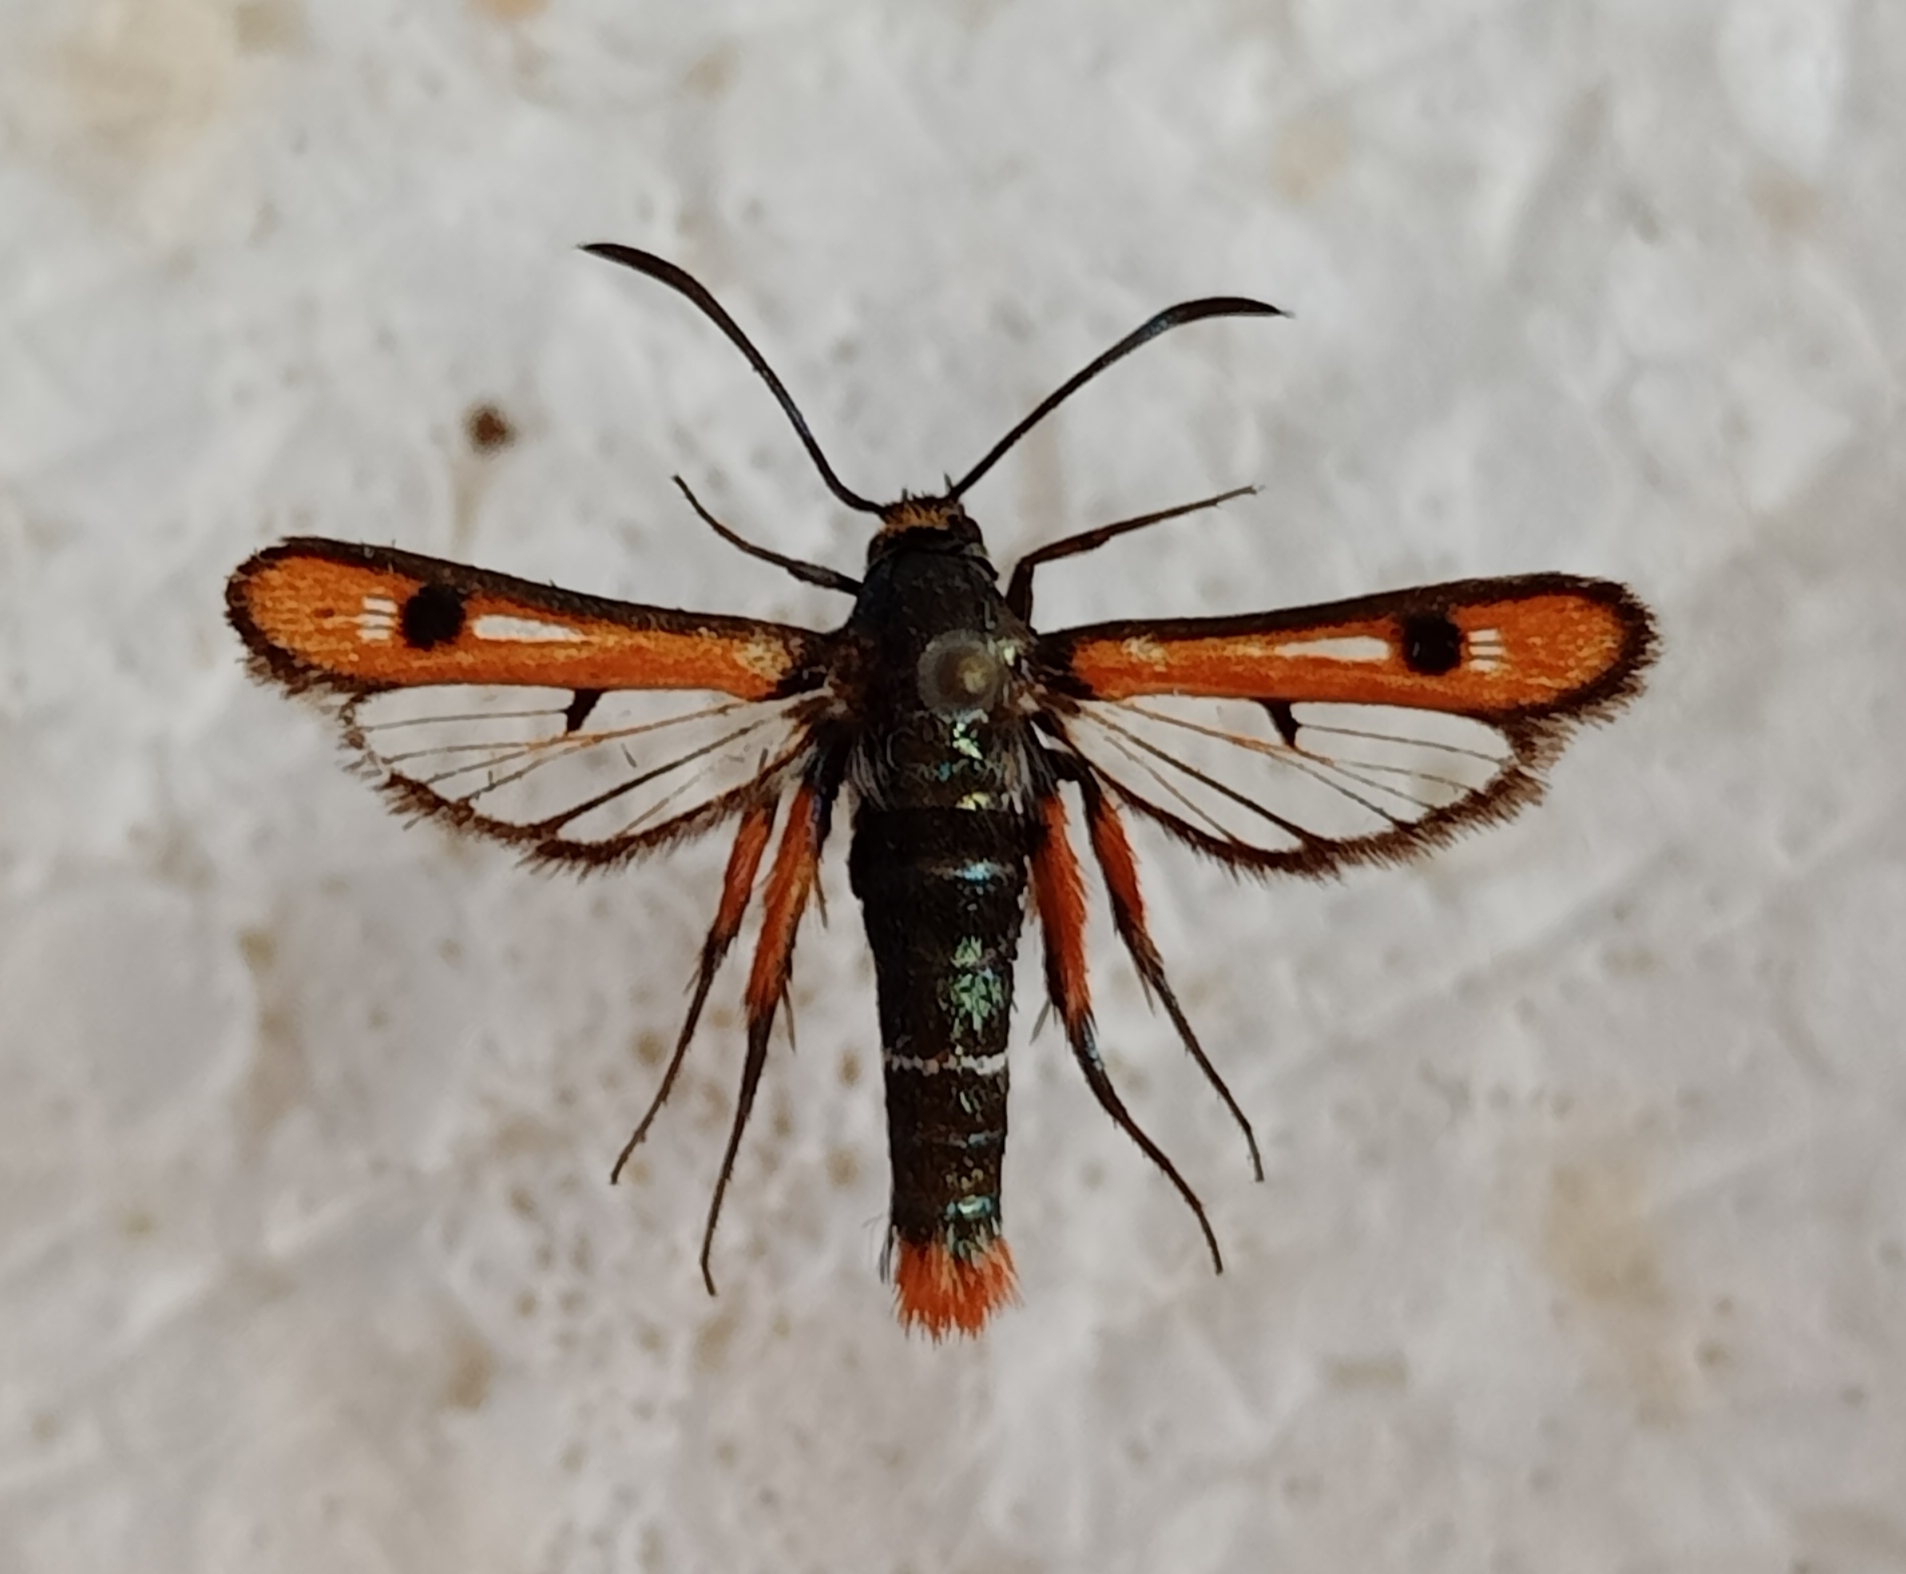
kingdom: Animalia
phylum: Arthropoda
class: Insecta
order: Lepidoptera
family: Sesiidae
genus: Chamaesphecia
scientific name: Chamaesphecia schmidtiiformis
